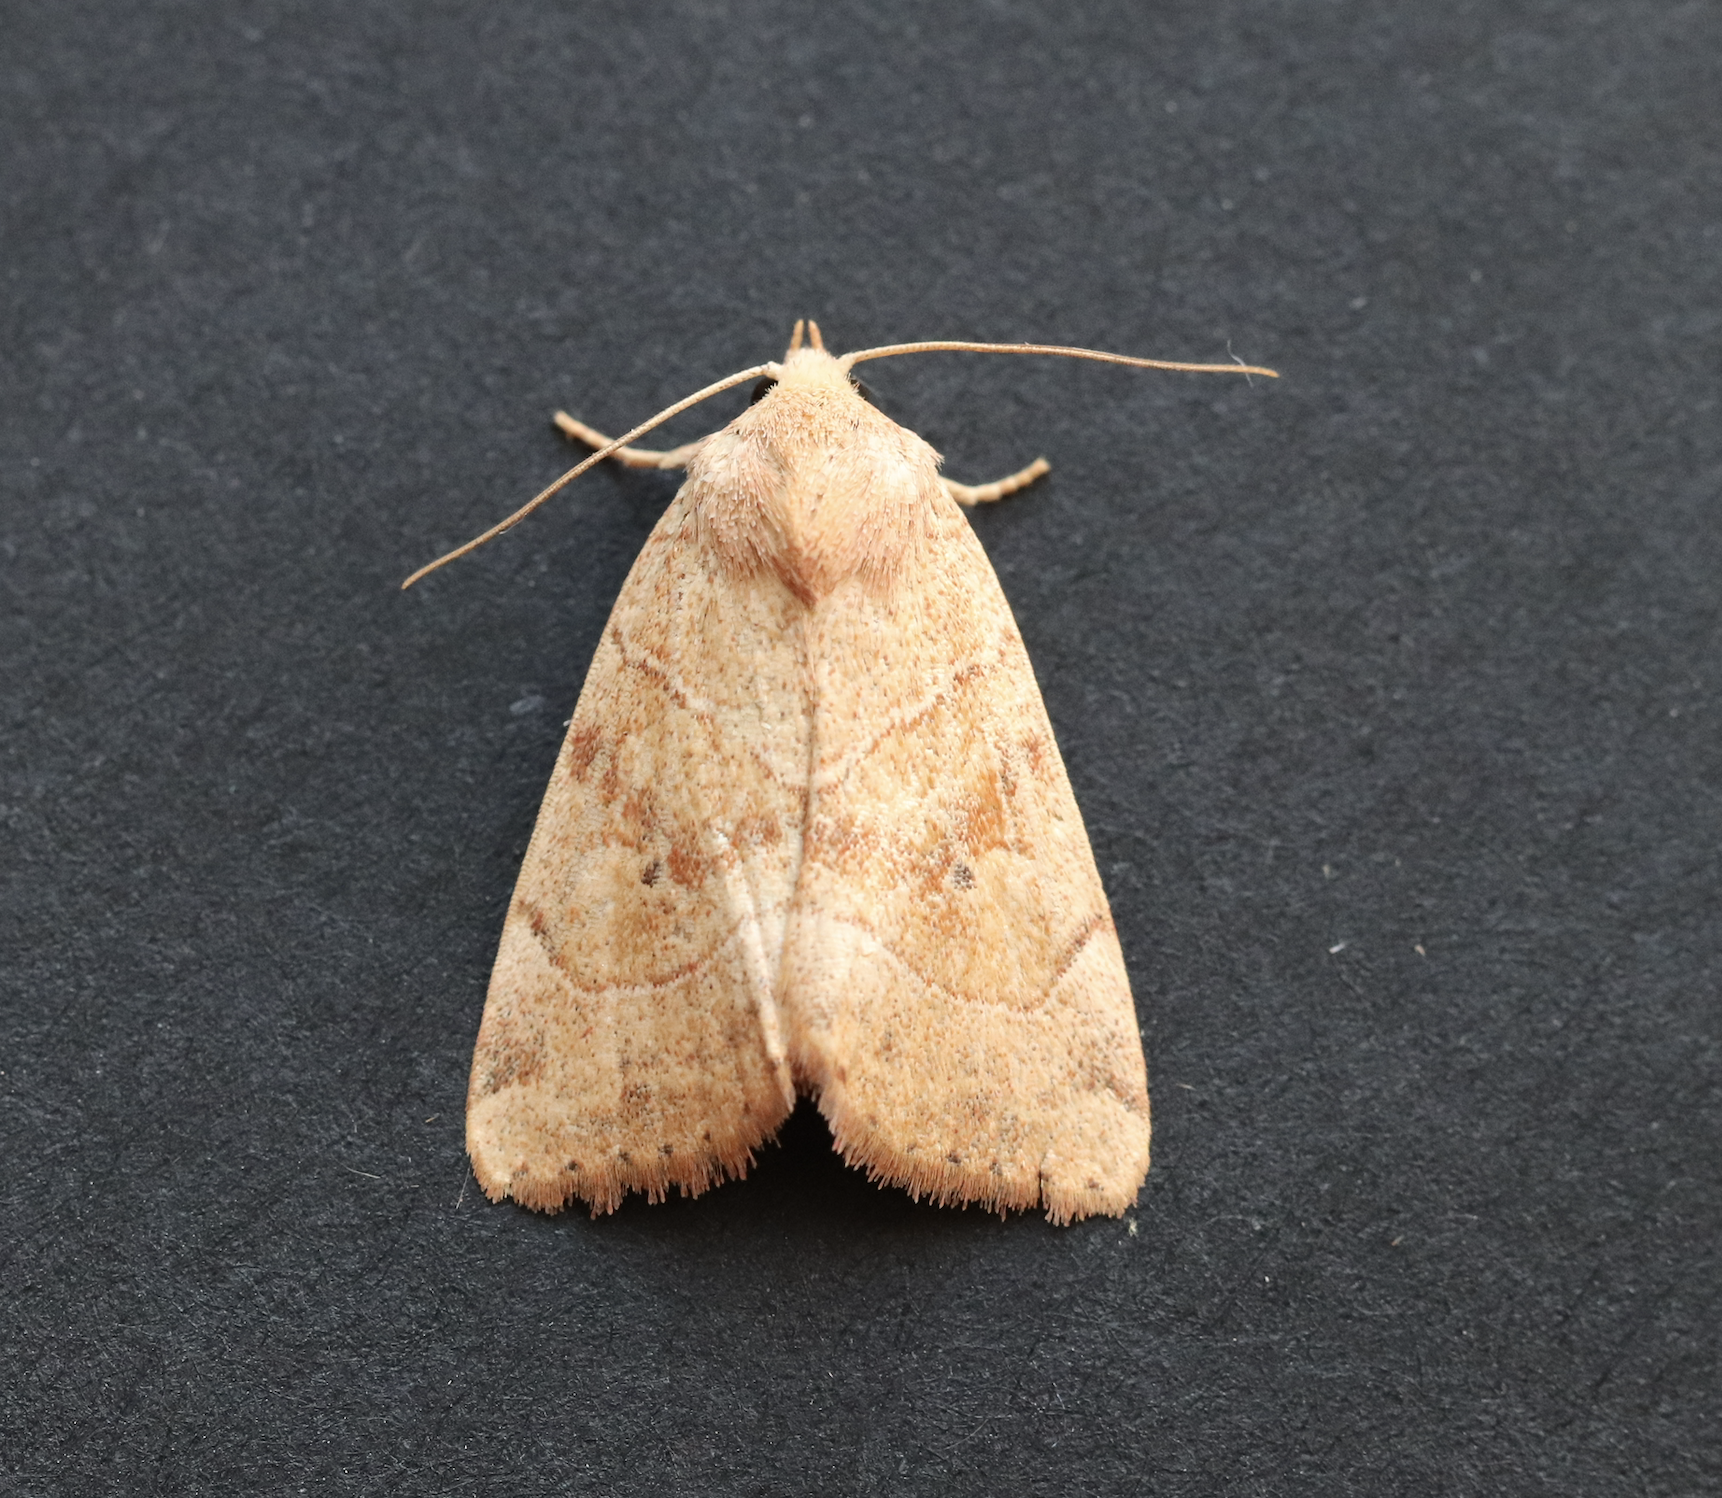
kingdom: Animalia
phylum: Arthropoda
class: Insecta
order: Lepidoptera
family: Noctuidae
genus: Cosmia
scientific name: Cosmia trapezina
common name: Dun-bar
